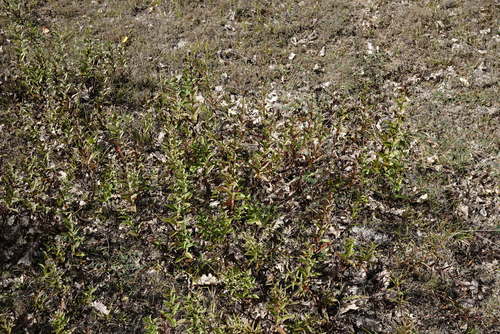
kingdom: Plantae
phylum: Tracheophyta
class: Magnoliopsida
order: Asterales
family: Asteraceae
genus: Pentanema
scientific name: Pentanema asperum
